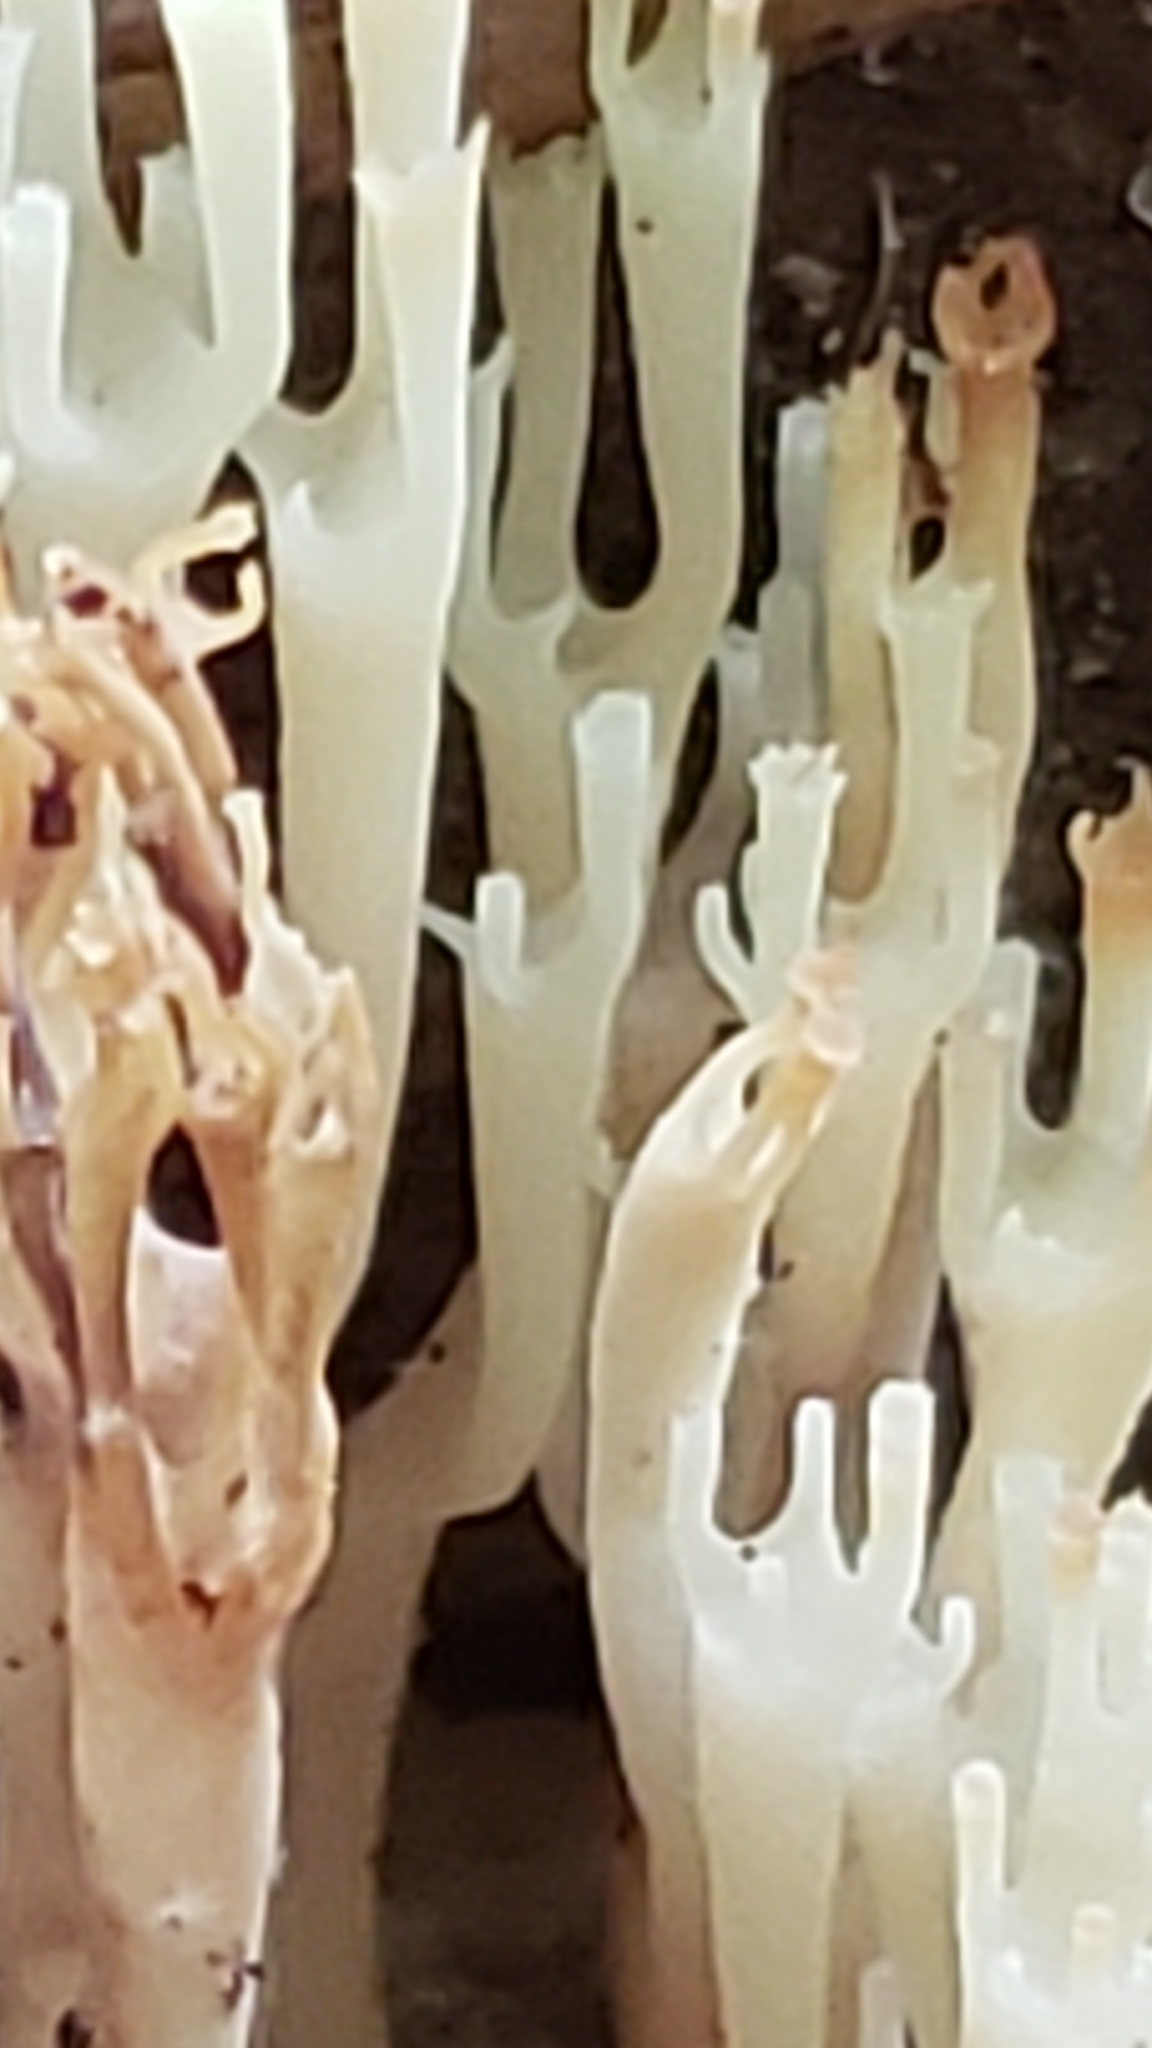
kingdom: Fungi
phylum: Basidiomycota
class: Agaricomycetes
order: Russulales
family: Auriscalpiaceae
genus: Artomyces
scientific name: Artomyces pyxidatus
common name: Crown-tipped coral fungus
